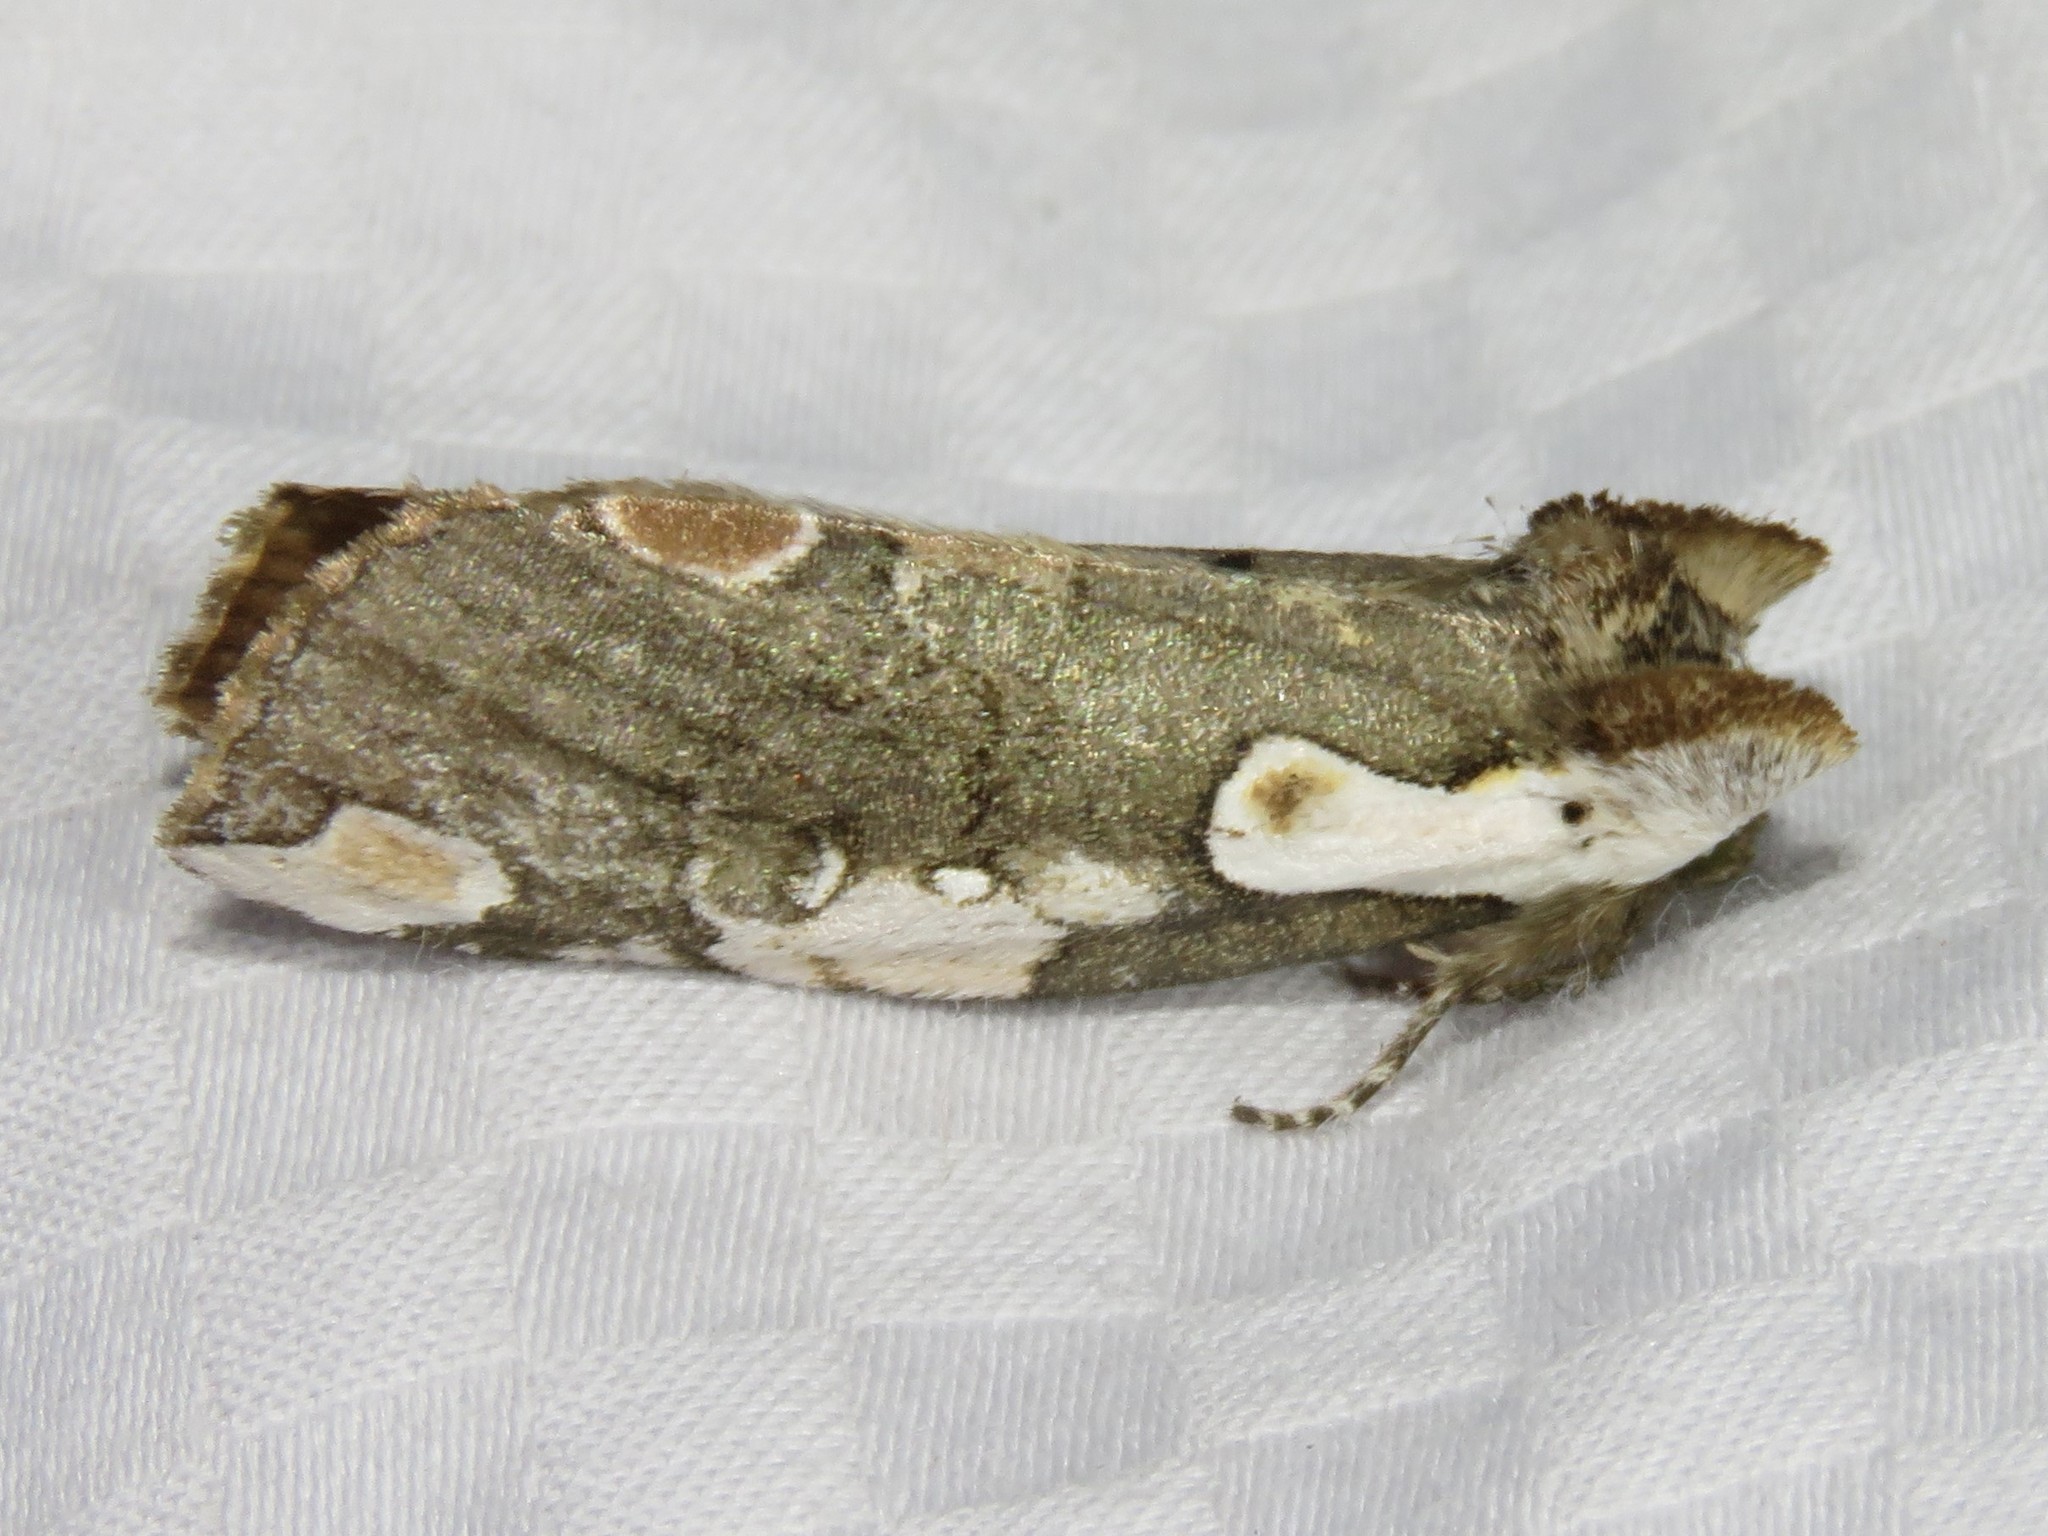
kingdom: Animalia
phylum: Arthropoda
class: Insecta
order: Lepidoptera
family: Drepanidae
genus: Euthyatira
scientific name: Euthyatira pudens
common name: Dogwood thyatirid moth
